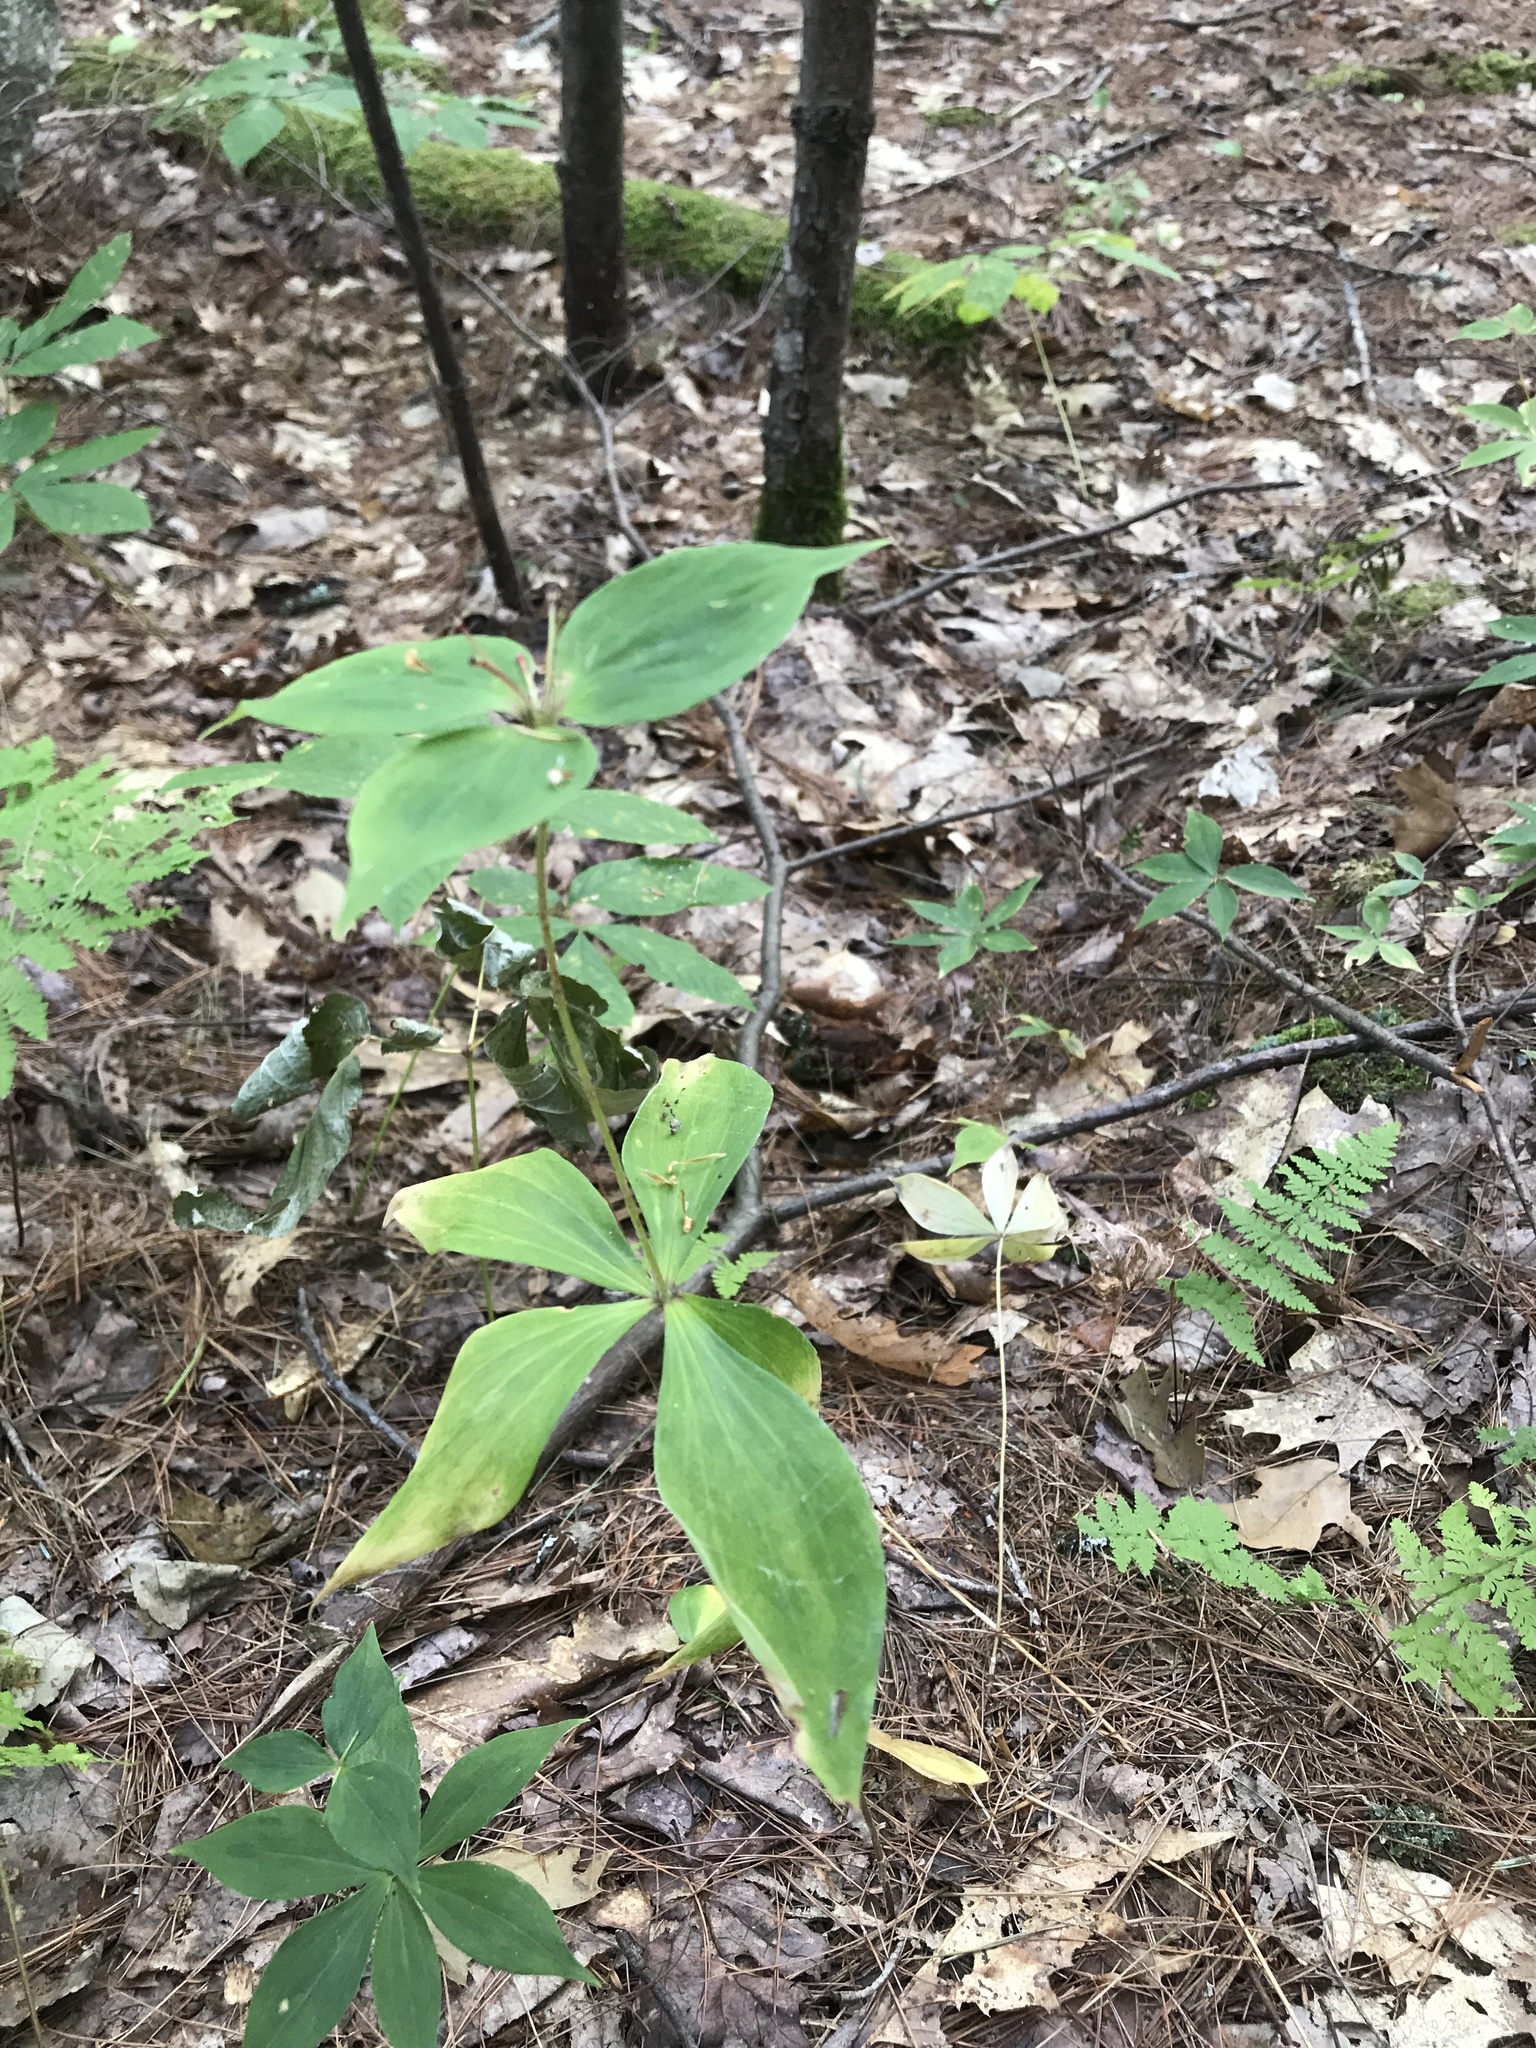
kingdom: Plantae
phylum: Tracheophyta
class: Liliopsida
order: Liliales
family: Liliaceae
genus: Medeola
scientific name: Medeola virginiana
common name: Indian cucumber-root
